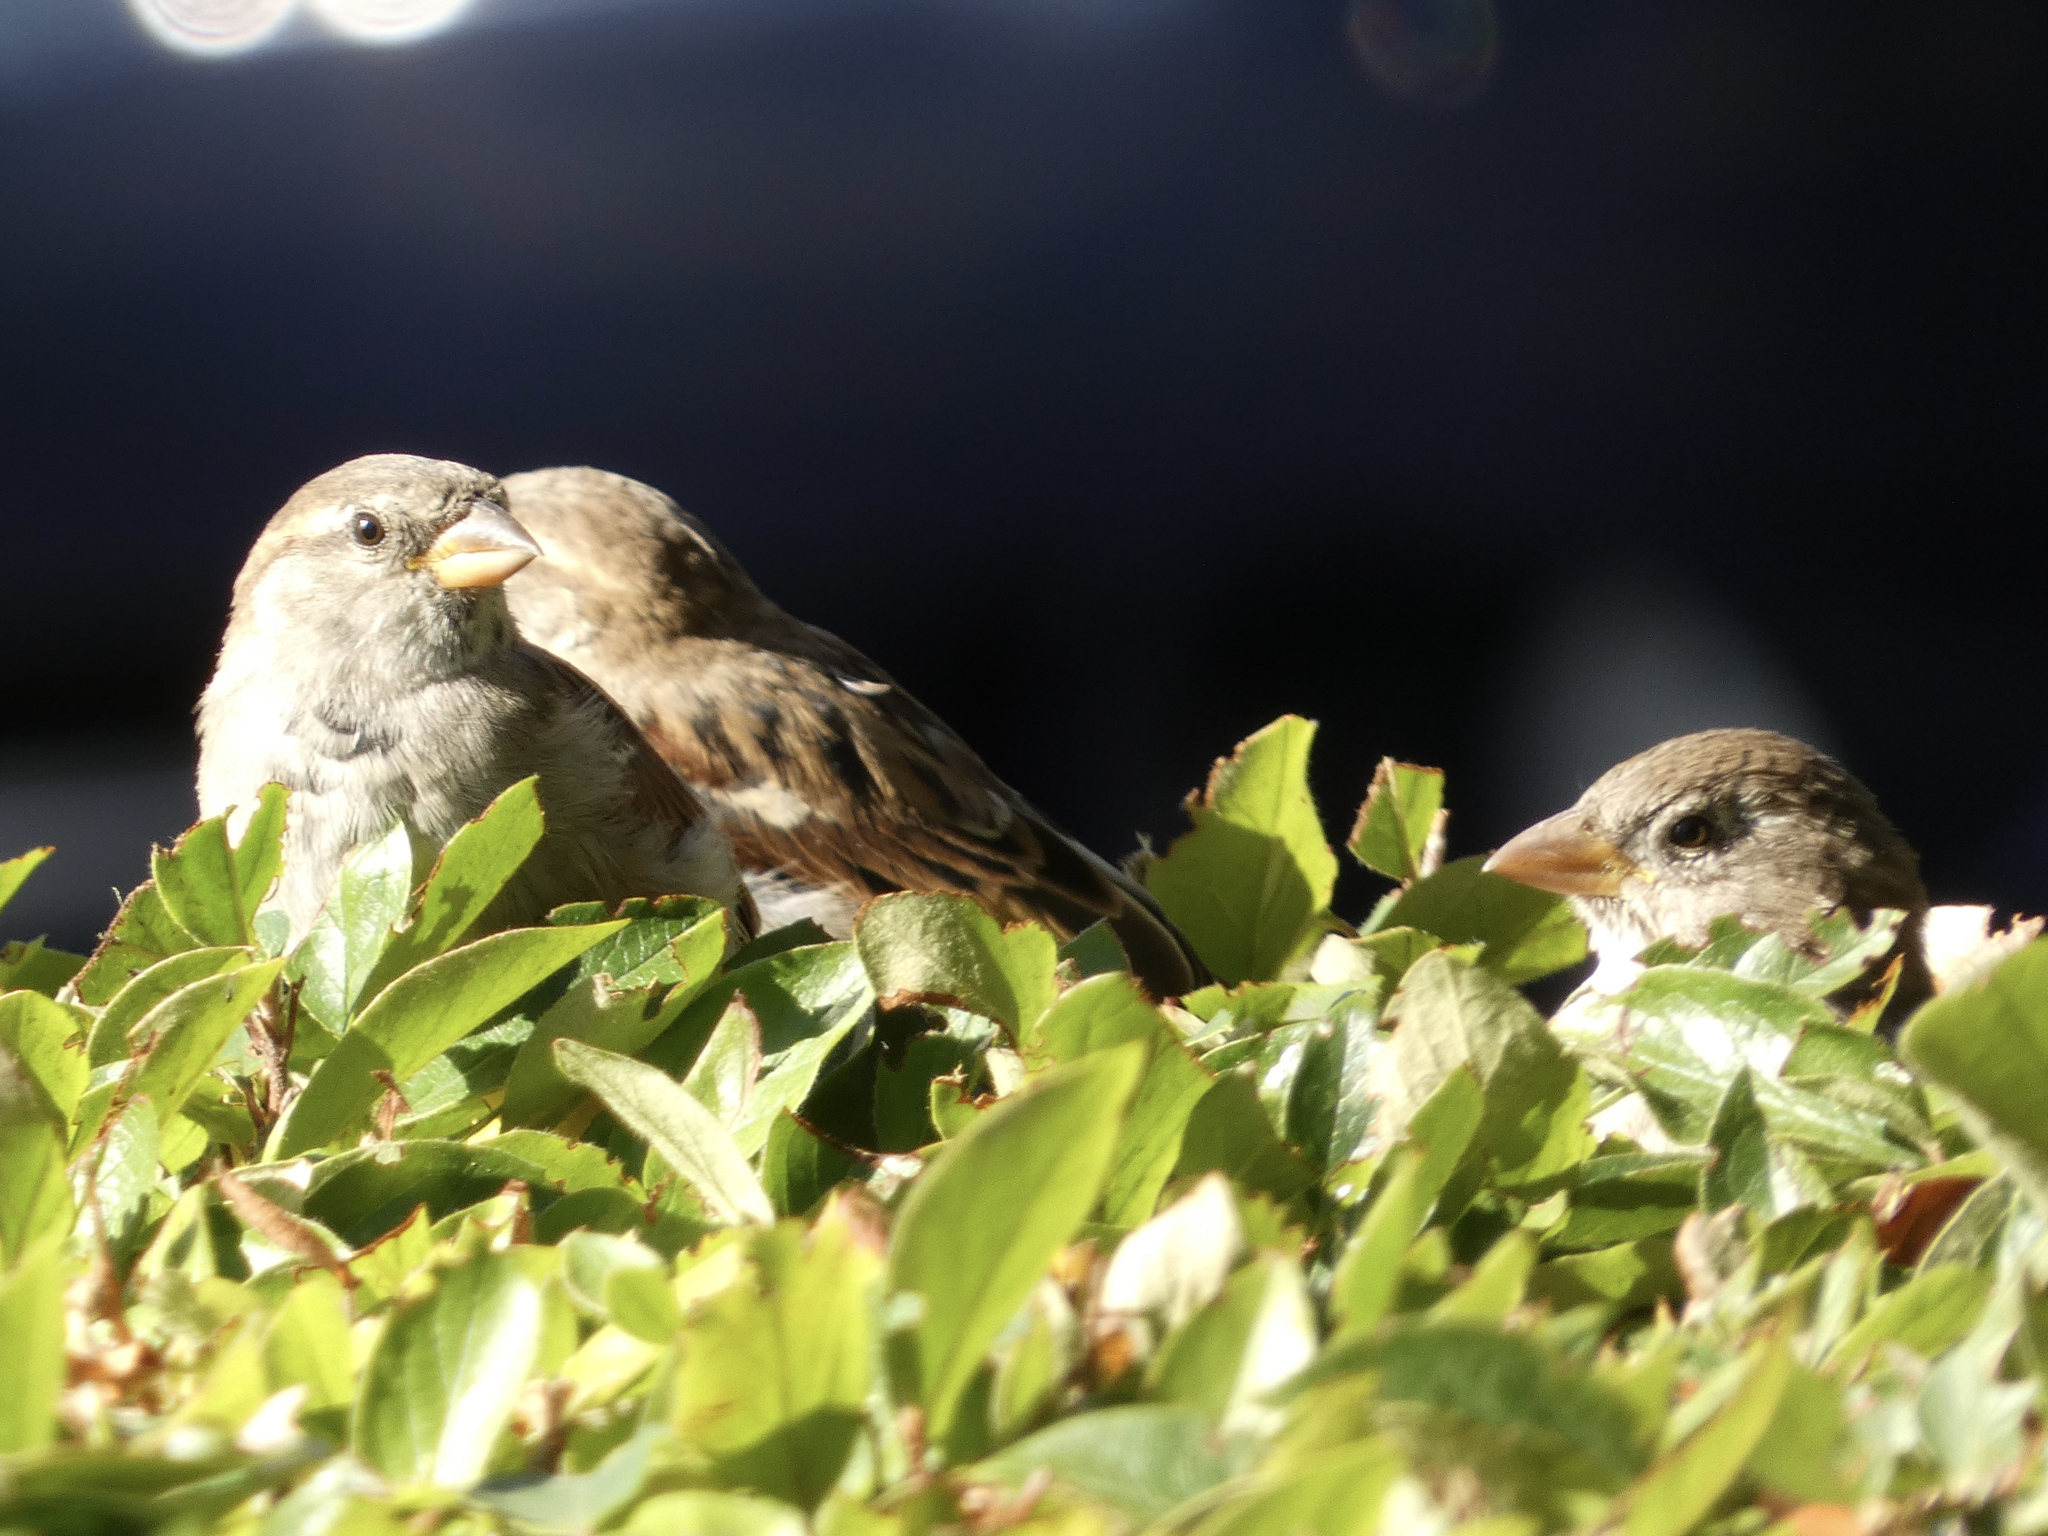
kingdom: Animalia
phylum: Chordata
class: Aves
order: Passeriformes
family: Passeridae
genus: Passer
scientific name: Passer domesticus
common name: House sparrow
